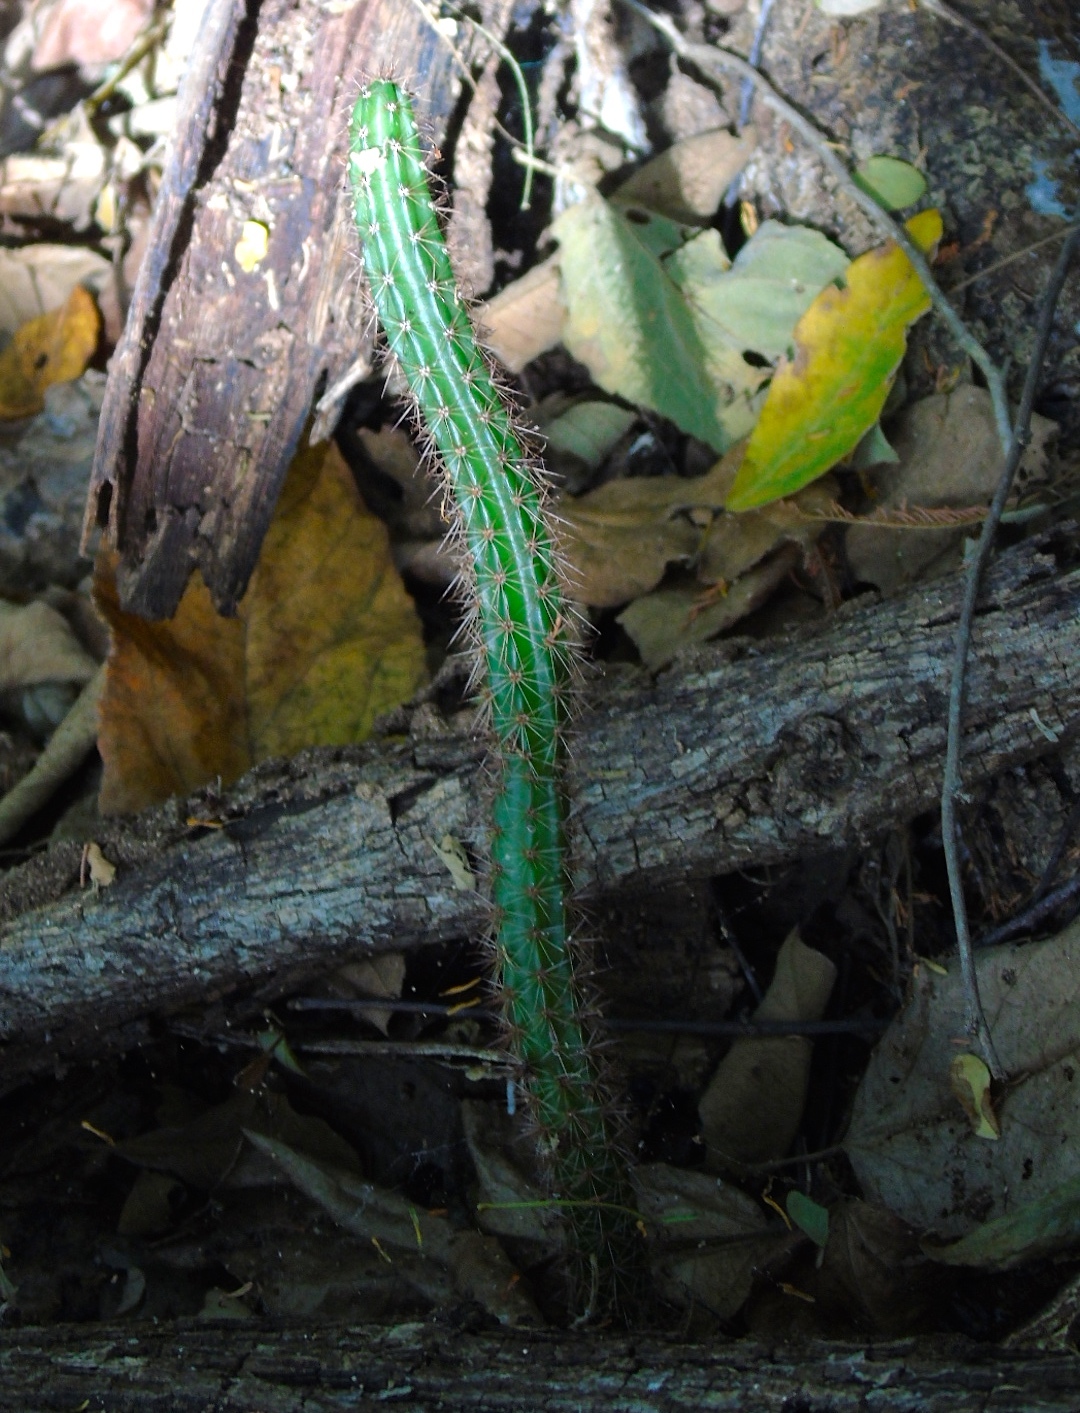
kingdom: Plantae
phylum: Tracheophyta
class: Magnoliopsida
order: Caryophyllales
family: Cactaceae
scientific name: Cactaceae
